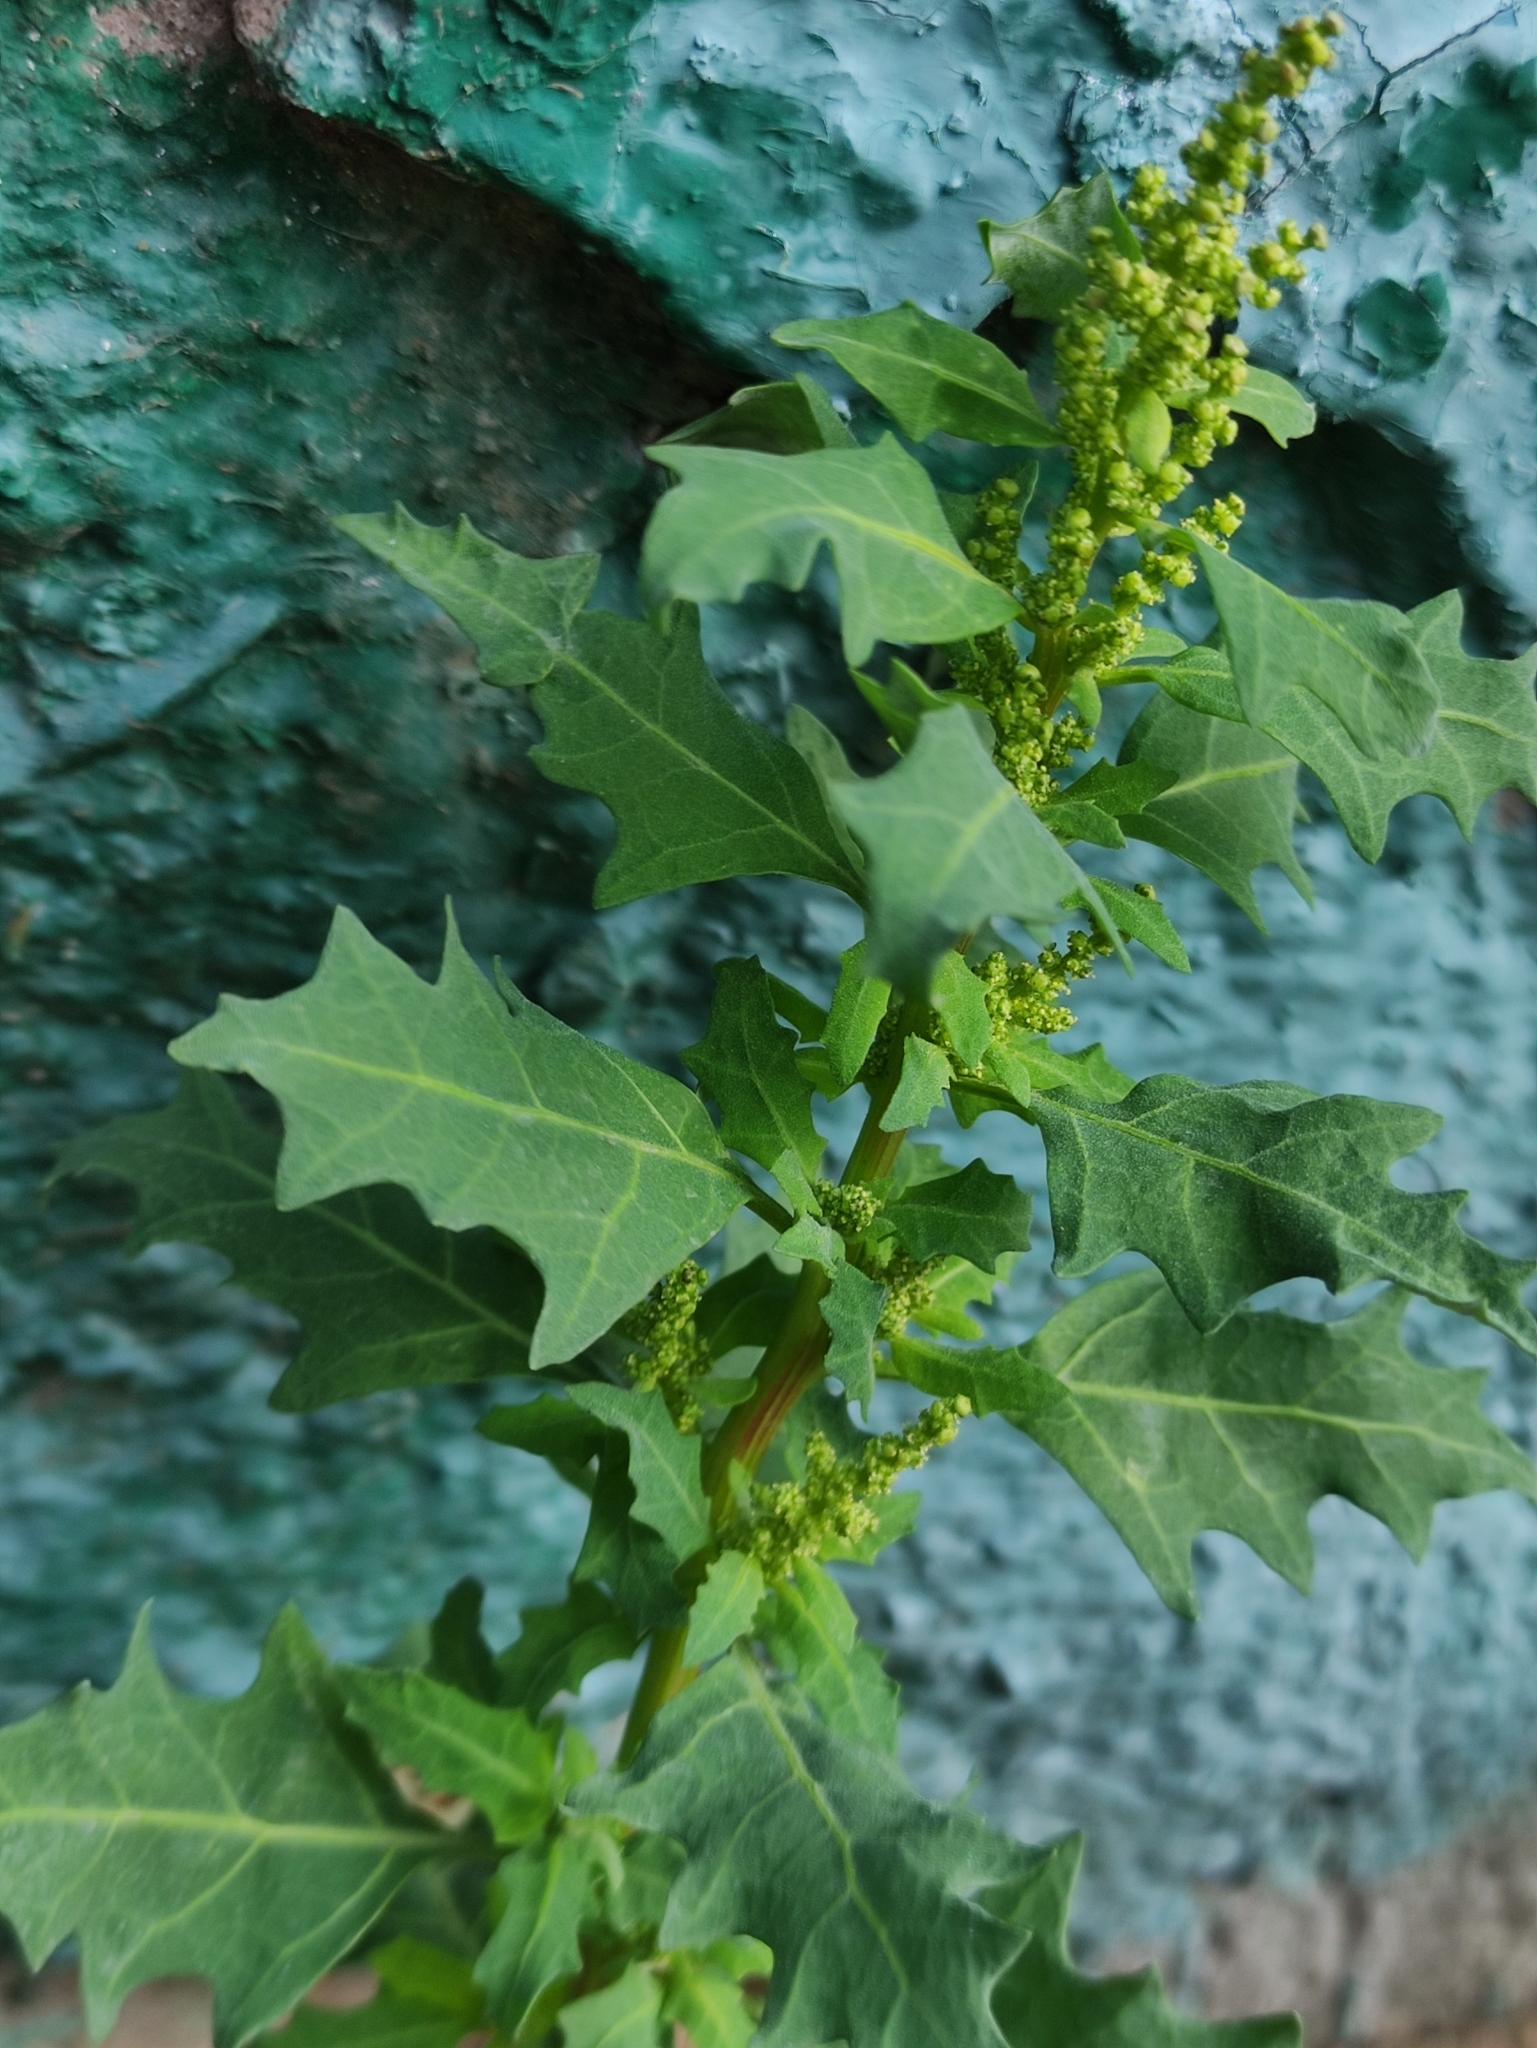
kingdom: Plantae
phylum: Tracheophyta
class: Magnoliopsida
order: Caryophyllales
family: Amaranthaceae
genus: Oxybasis
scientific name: Oxybasis glauca
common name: Glaucous goosefoot
